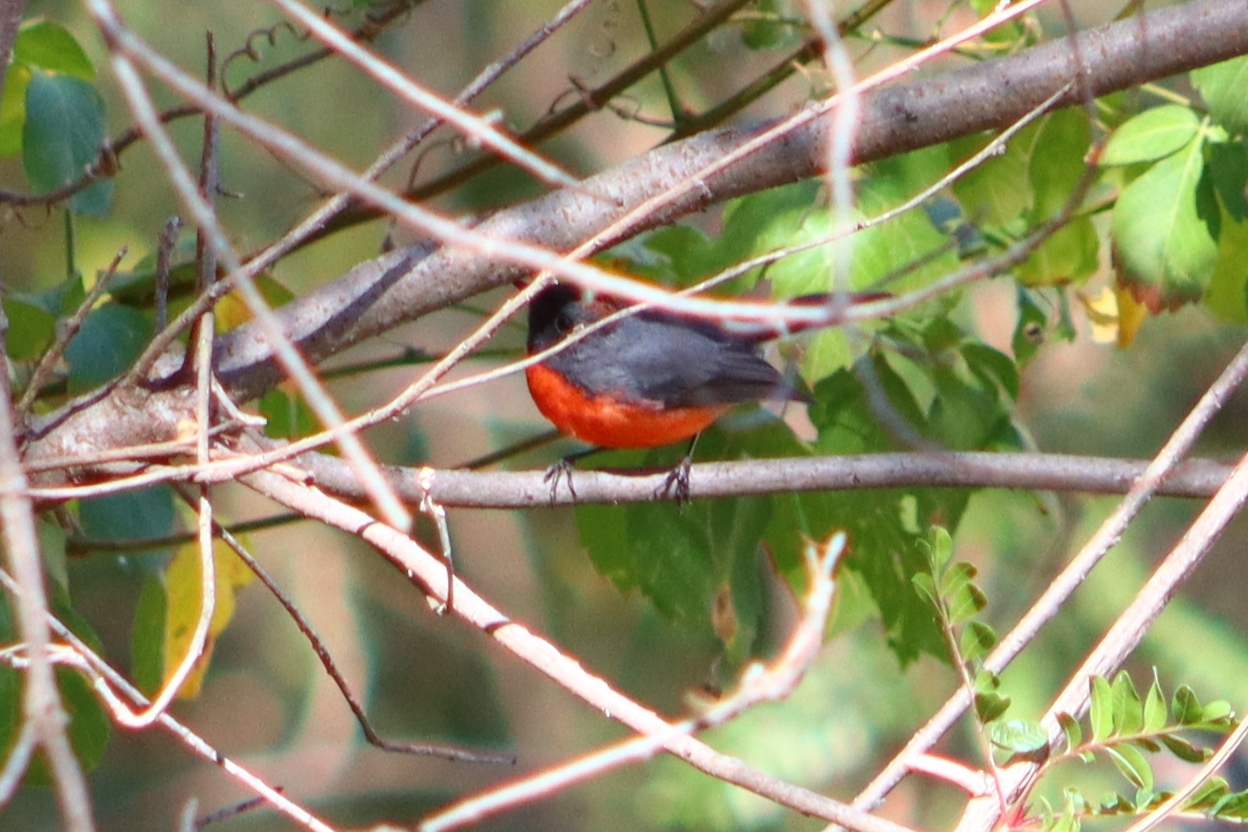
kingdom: Animalia
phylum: Chordata
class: Aves
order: Passeriformes
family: Parulidae
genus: Myioborus
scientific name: Myioborus miniatus
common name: Slate-throated redstart
